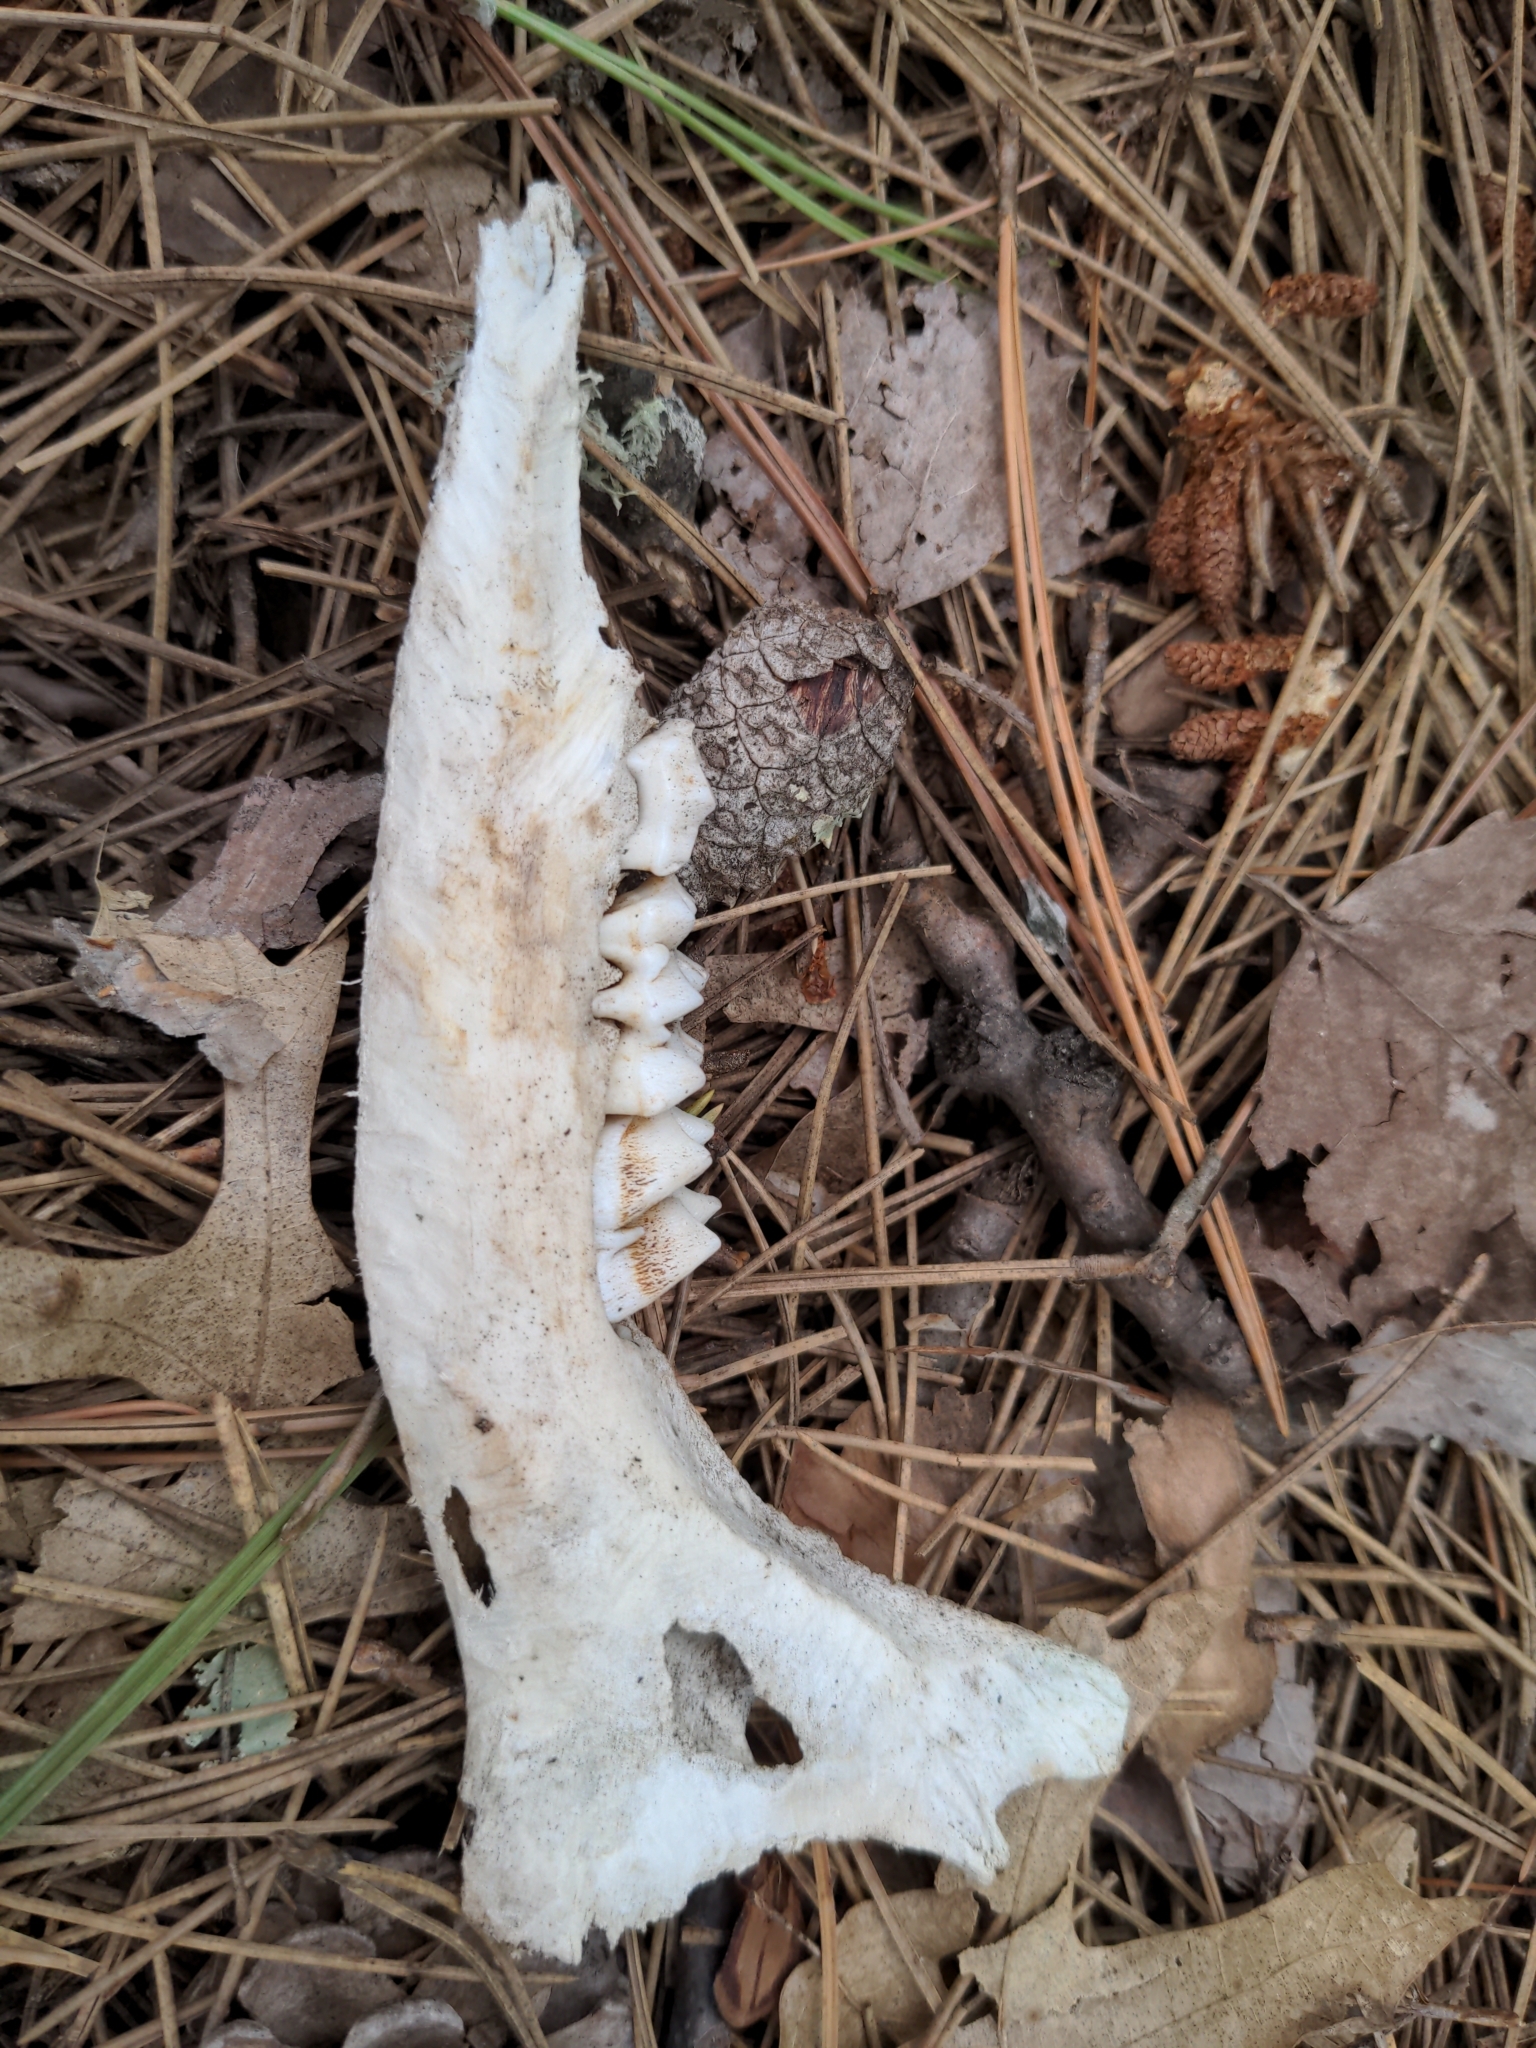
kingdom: Animalia
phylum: Chordata
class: Mammalia
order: Artiodactyla
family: Cervidae
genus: Odocoileus
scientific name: Odocoileus virginianus
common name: White-tailed deer
